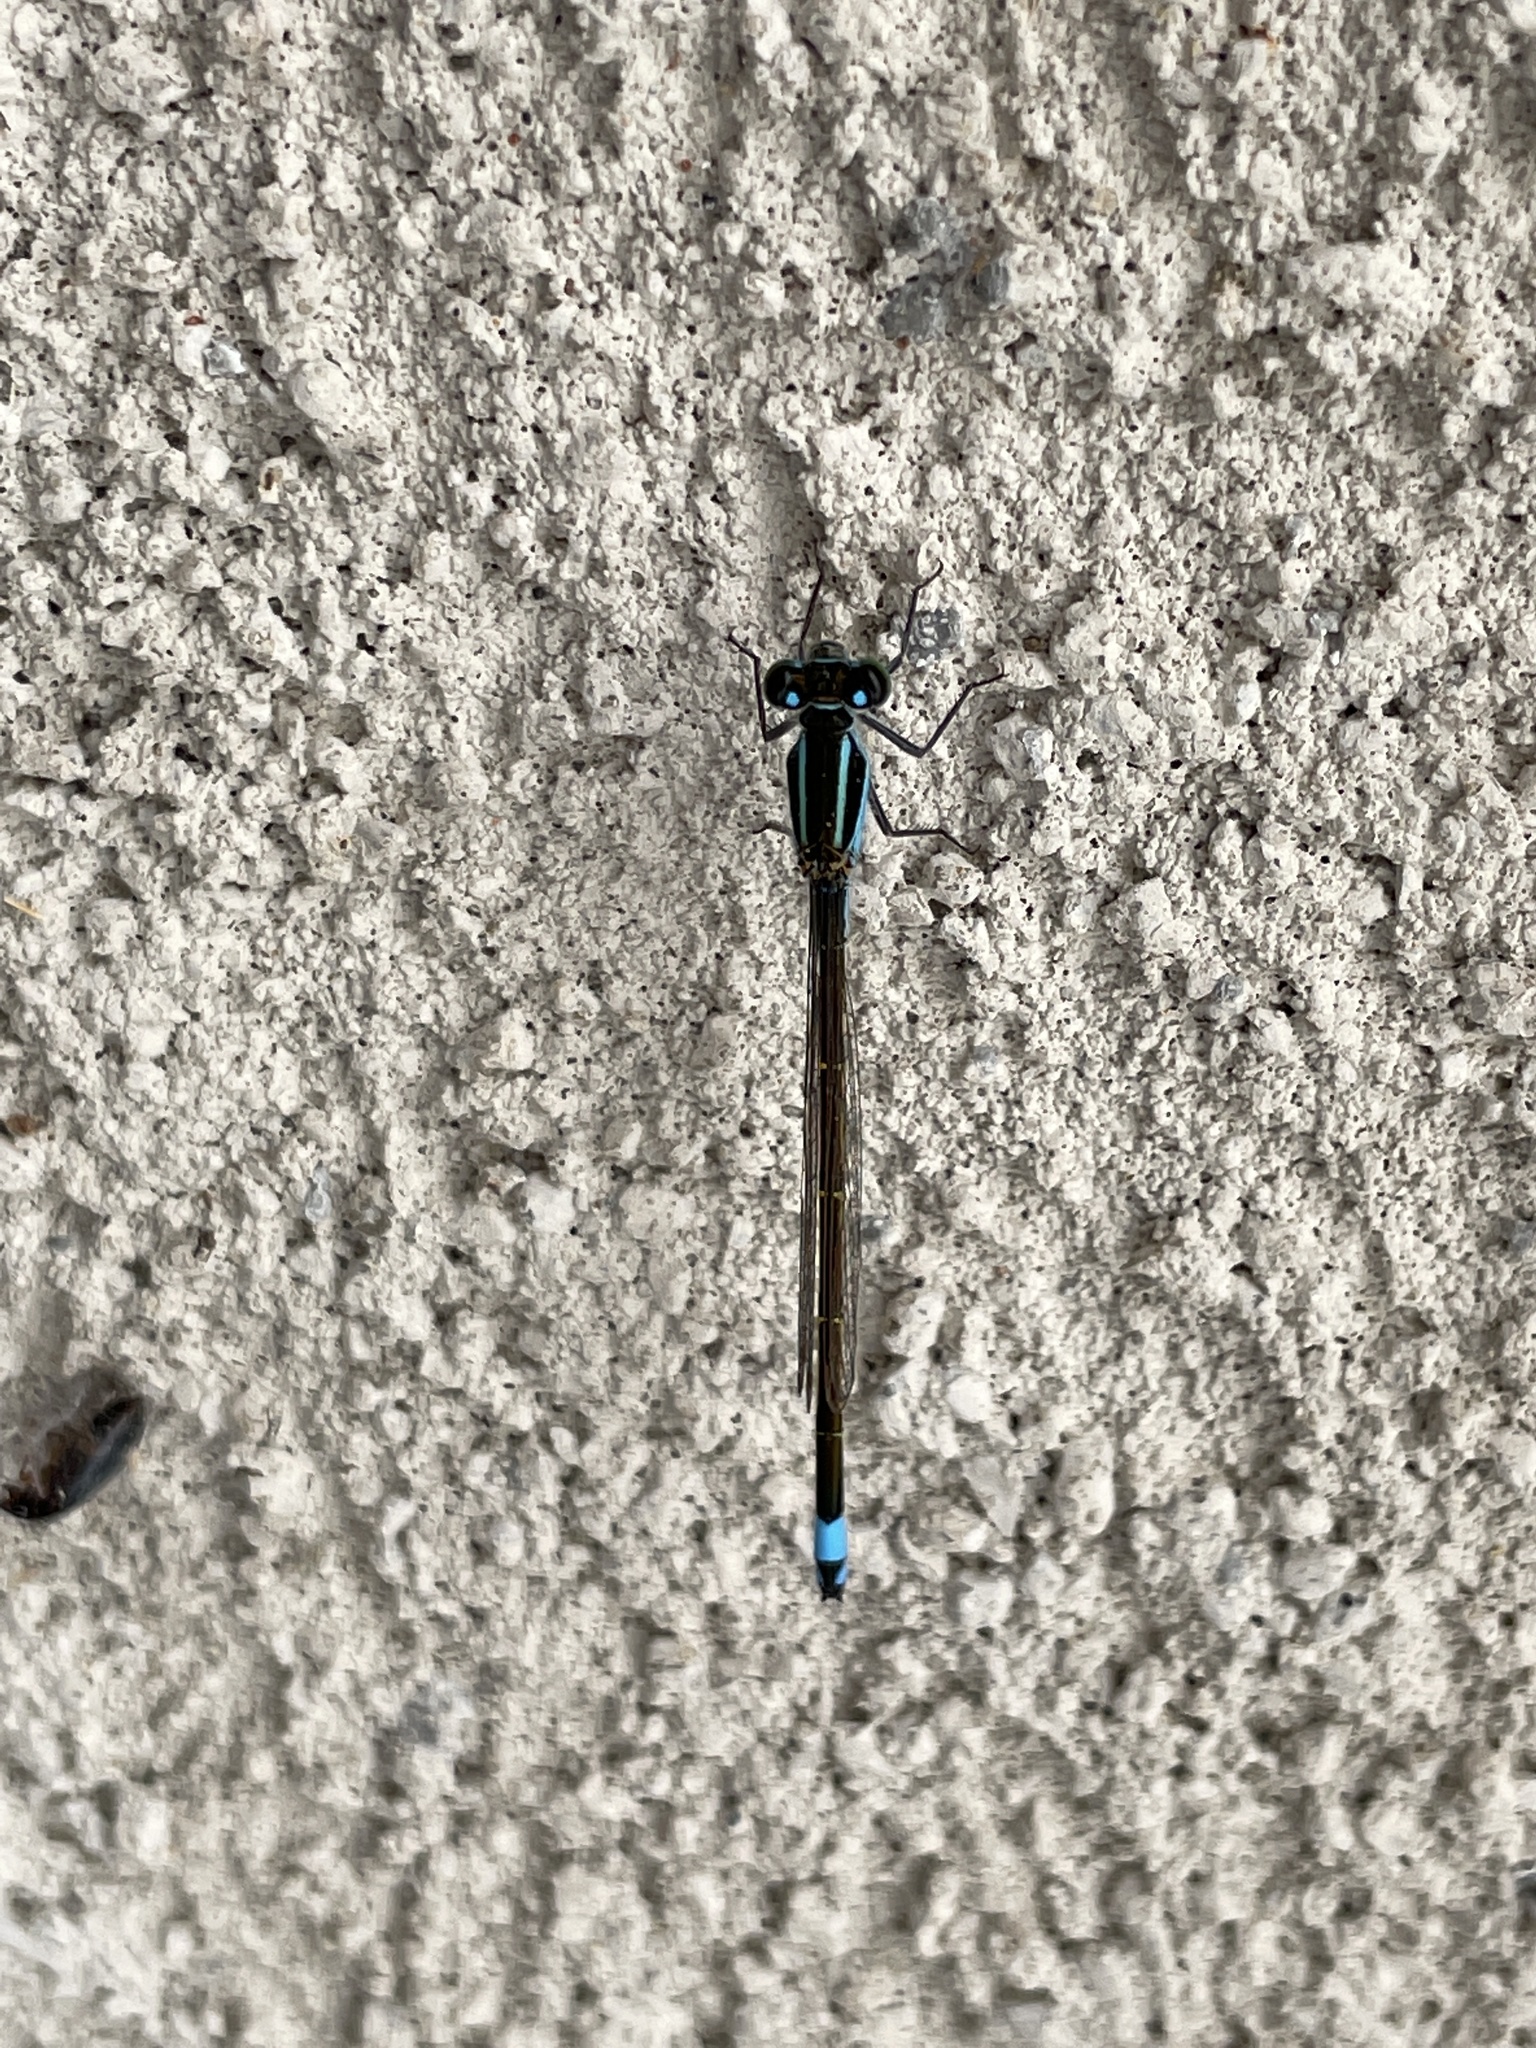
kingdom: Animalia
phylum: Arthropoda
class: Insecta
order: Odonata
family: Coenagrionidae
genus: Ischnura
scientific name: Ischnura ramburii
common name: Rambur's forktail
